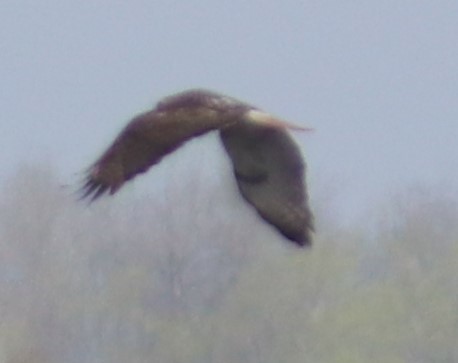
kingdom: Animalia
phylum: Chordata
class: Aves
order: Accipitriformes
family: Accipitridae
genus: Buteo
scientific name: Buteo jamaicensis
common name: Red-tailed hawk
